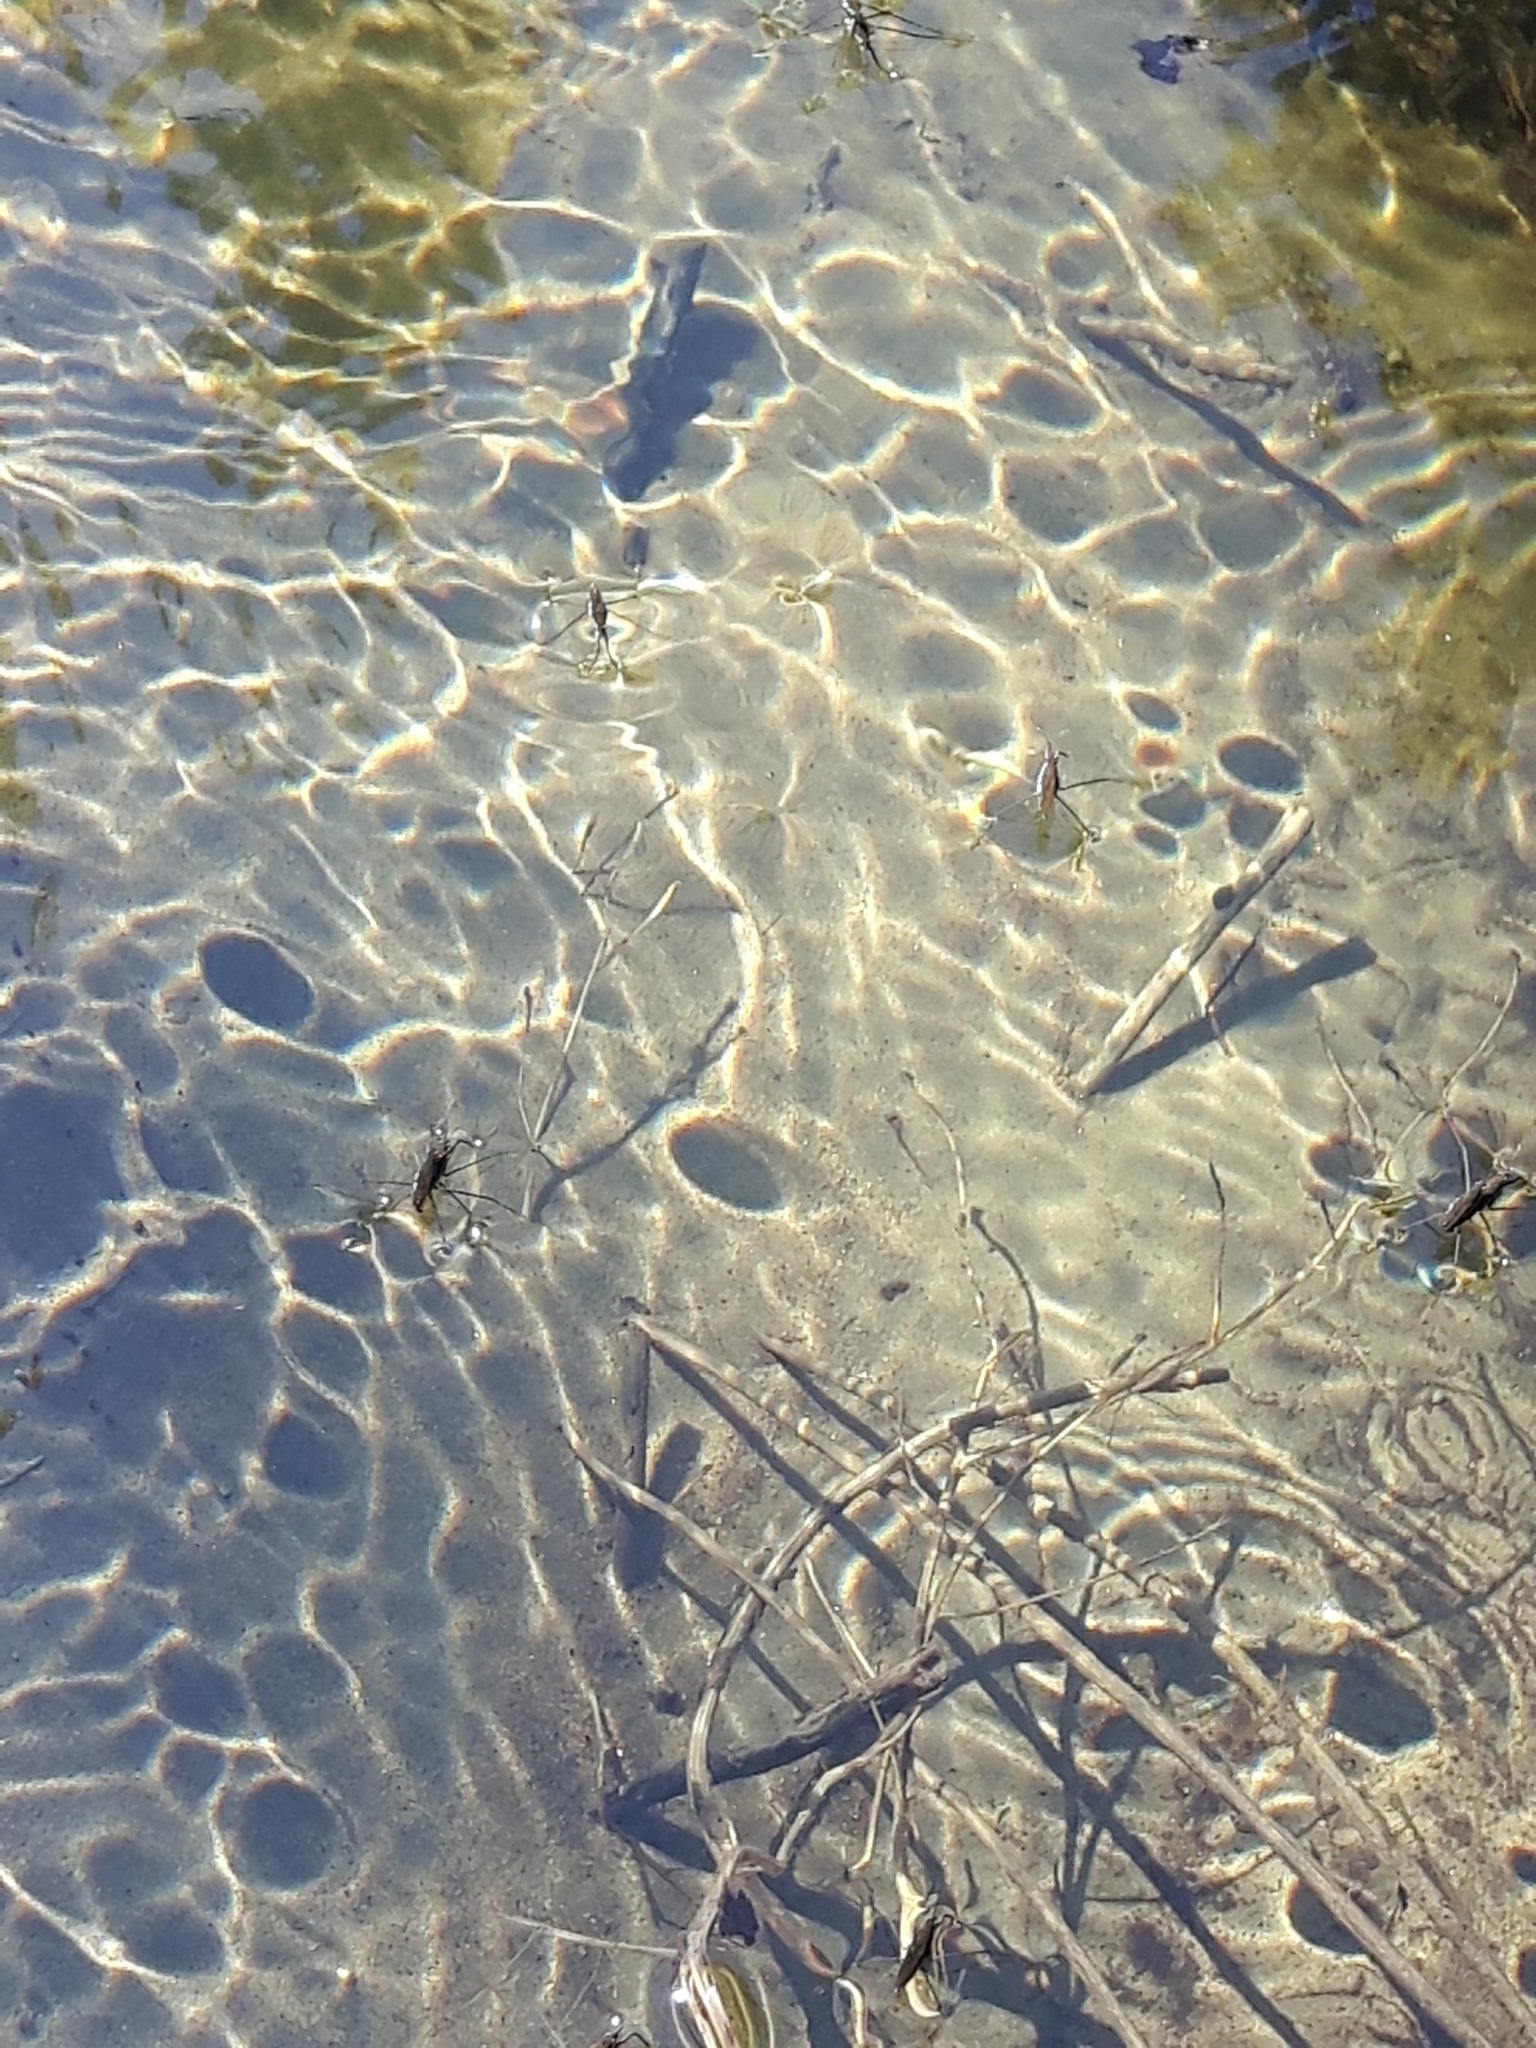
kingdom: Animalia
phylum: Arthropoda
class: Insecta
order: Hemiptera
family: Gerridae
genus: Aquarius
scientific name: Aquarius remigis
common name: Common water strider
